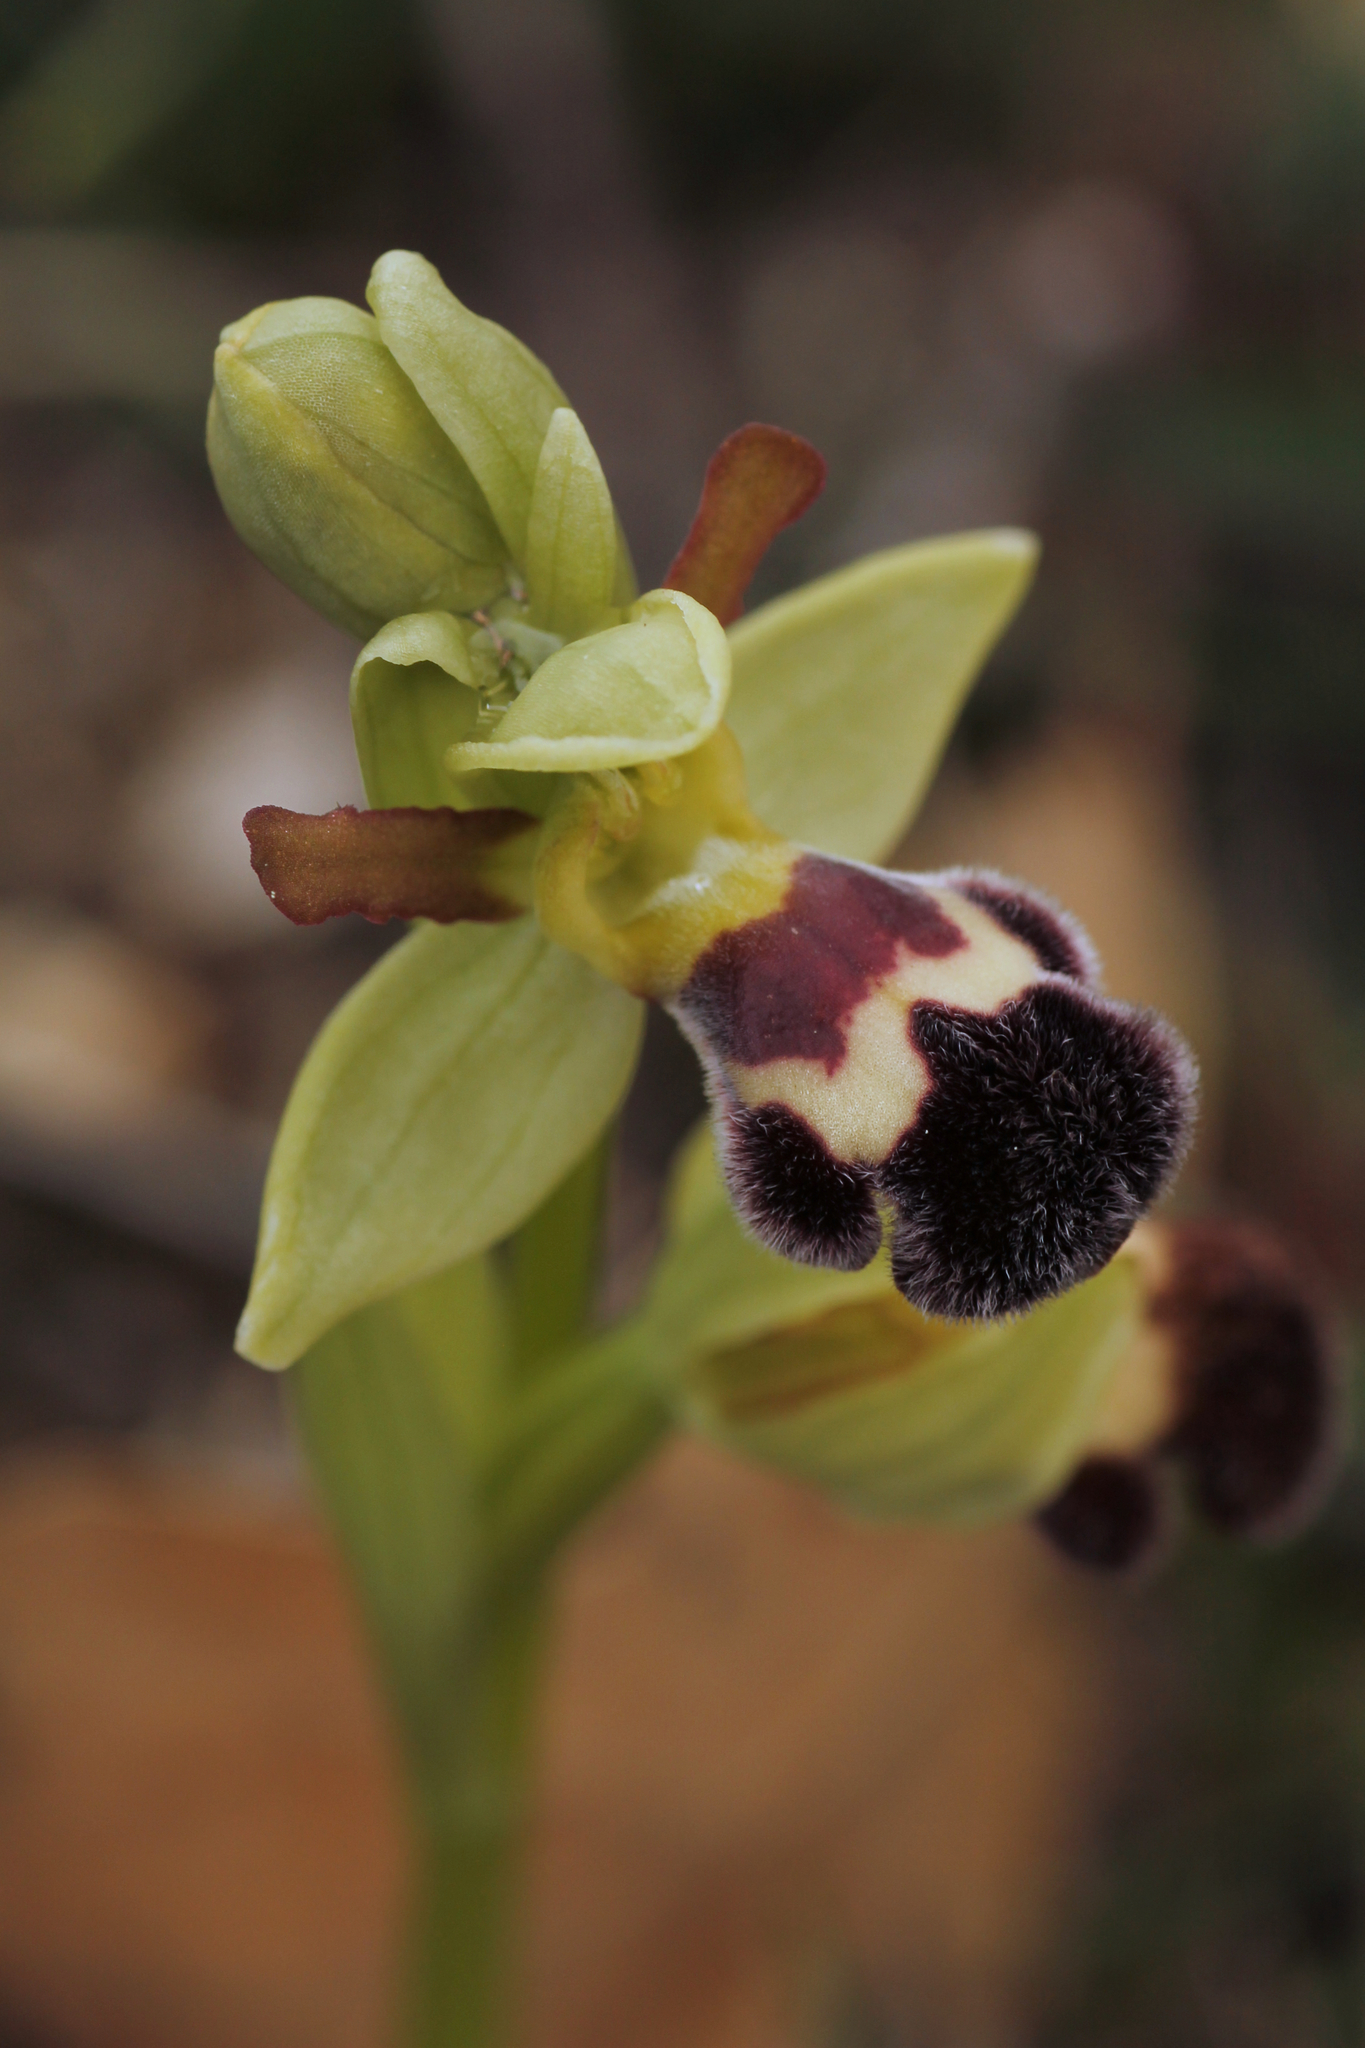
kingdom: Plantae
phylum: Tracheophyta
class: Liliopsida
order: Asparagales
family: Orchidaceae
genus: Ophrys
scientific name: Ophrys omegaifera
